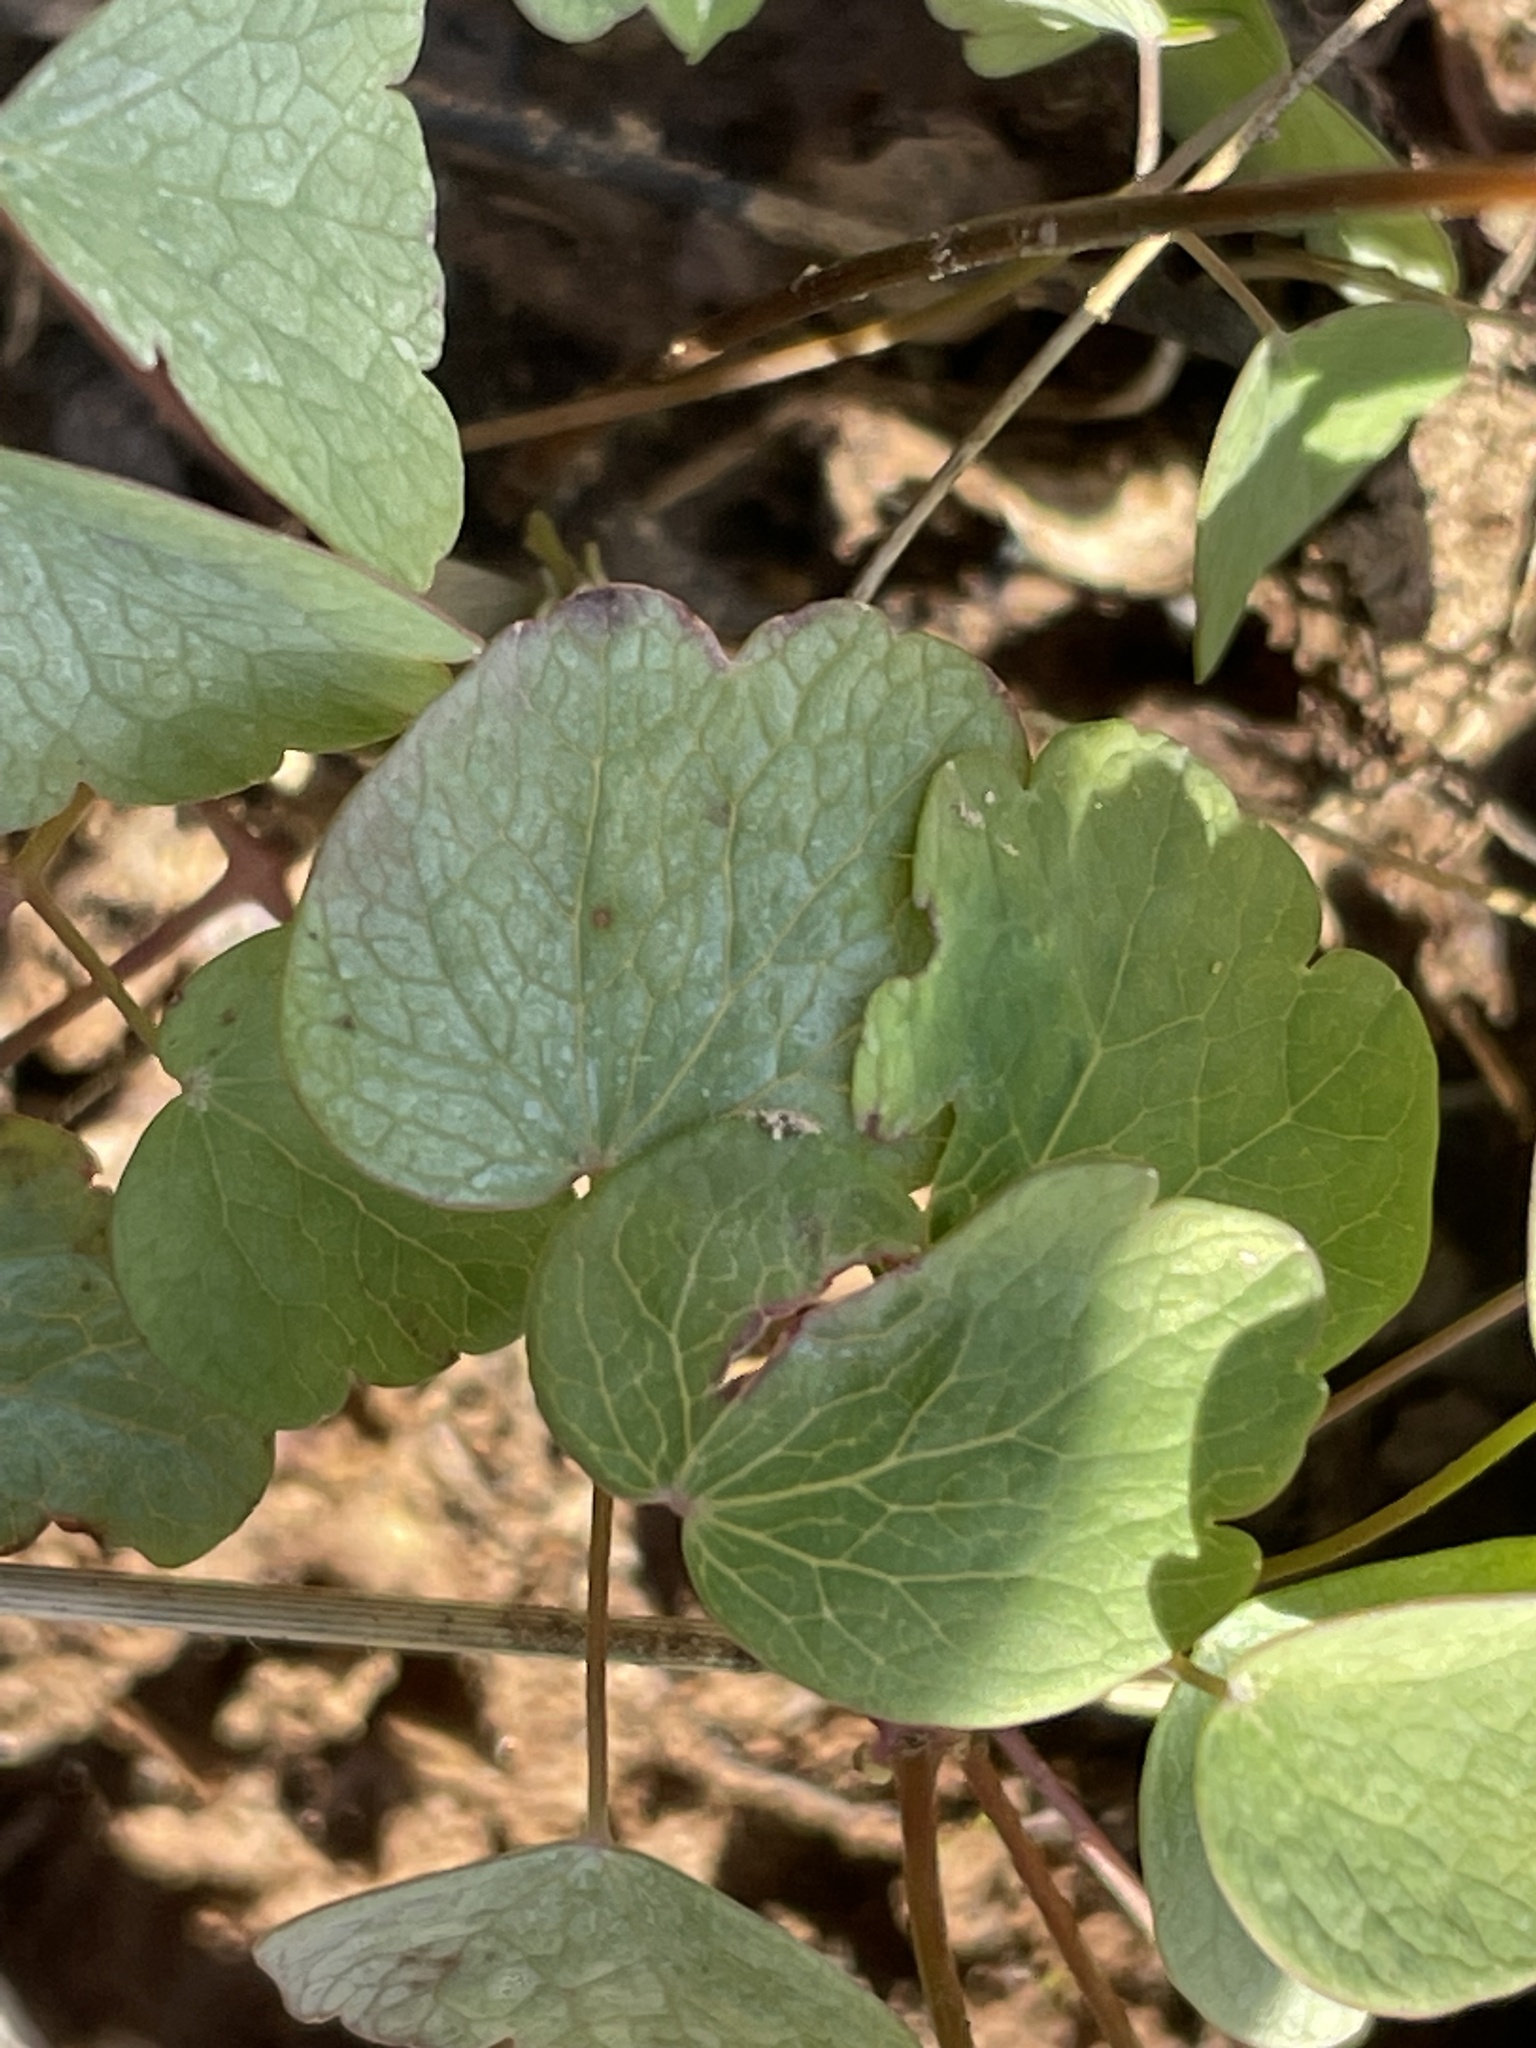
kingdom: Plantae
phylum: Tracheophyta
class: Magnoliopsida
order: Ranunculales
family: Ranunculaceae
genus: Thalictrum
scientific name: Thalictrum thalictroides
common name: Rue-anemone
